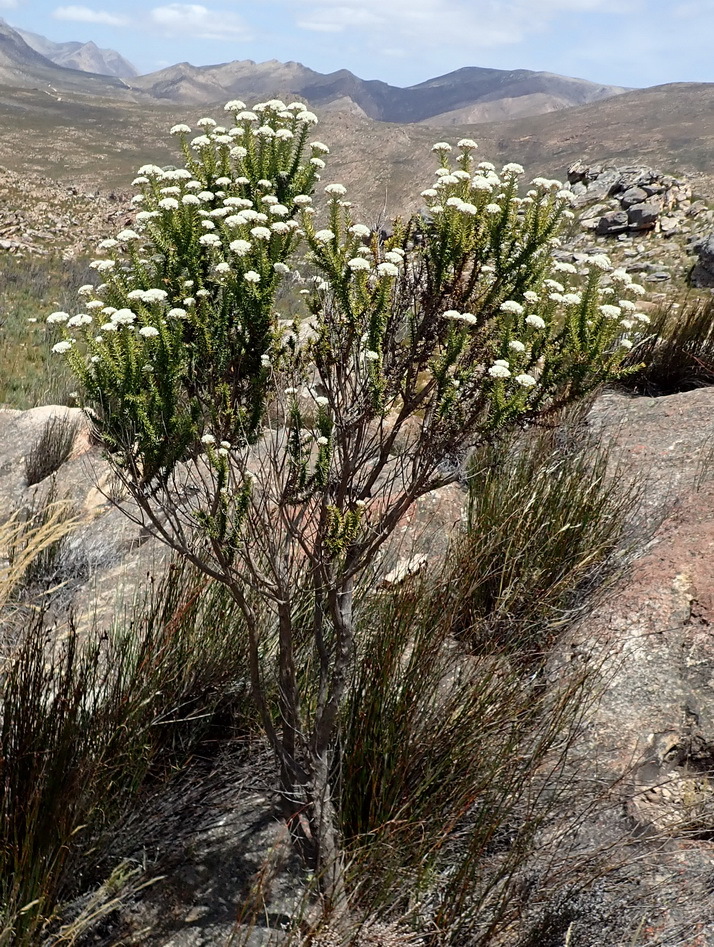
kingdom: Plantae
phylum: Tracheophyta
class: Magnoliopsida
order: Asterales
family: Asteraceae
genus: Metalasia
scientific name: Metalasia acuta
